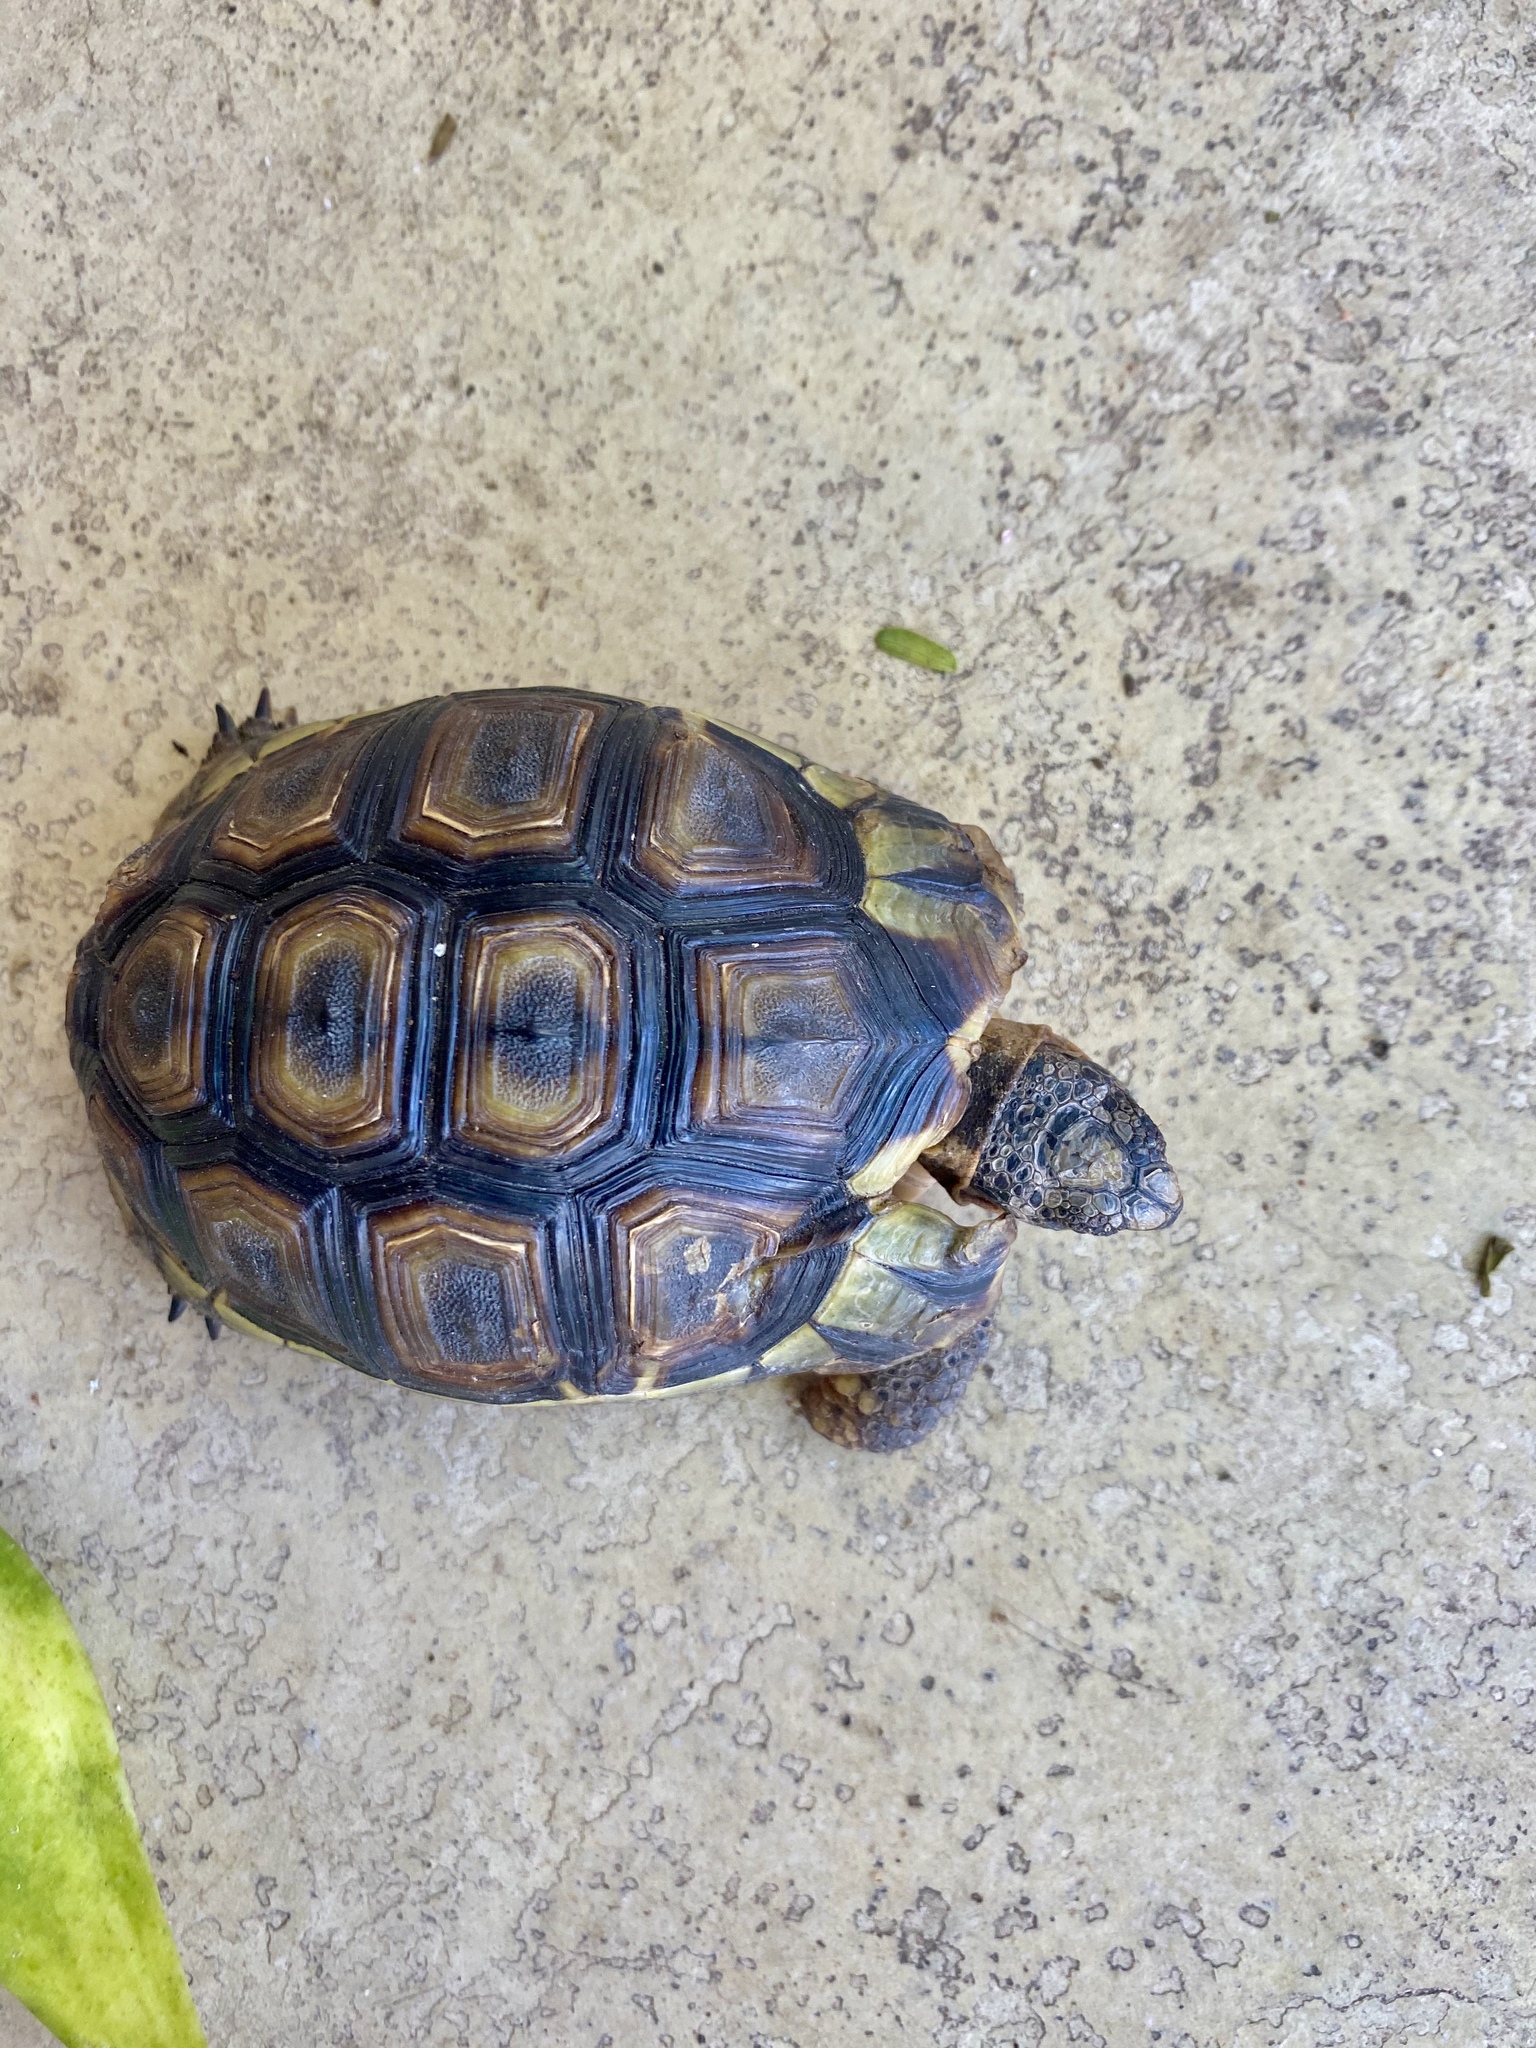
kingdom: Animalia
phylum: Chordata
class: Testudines
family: Testudinidae
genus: Chersina
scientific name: Chersina angulata
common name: South african bowsprit tortoise
